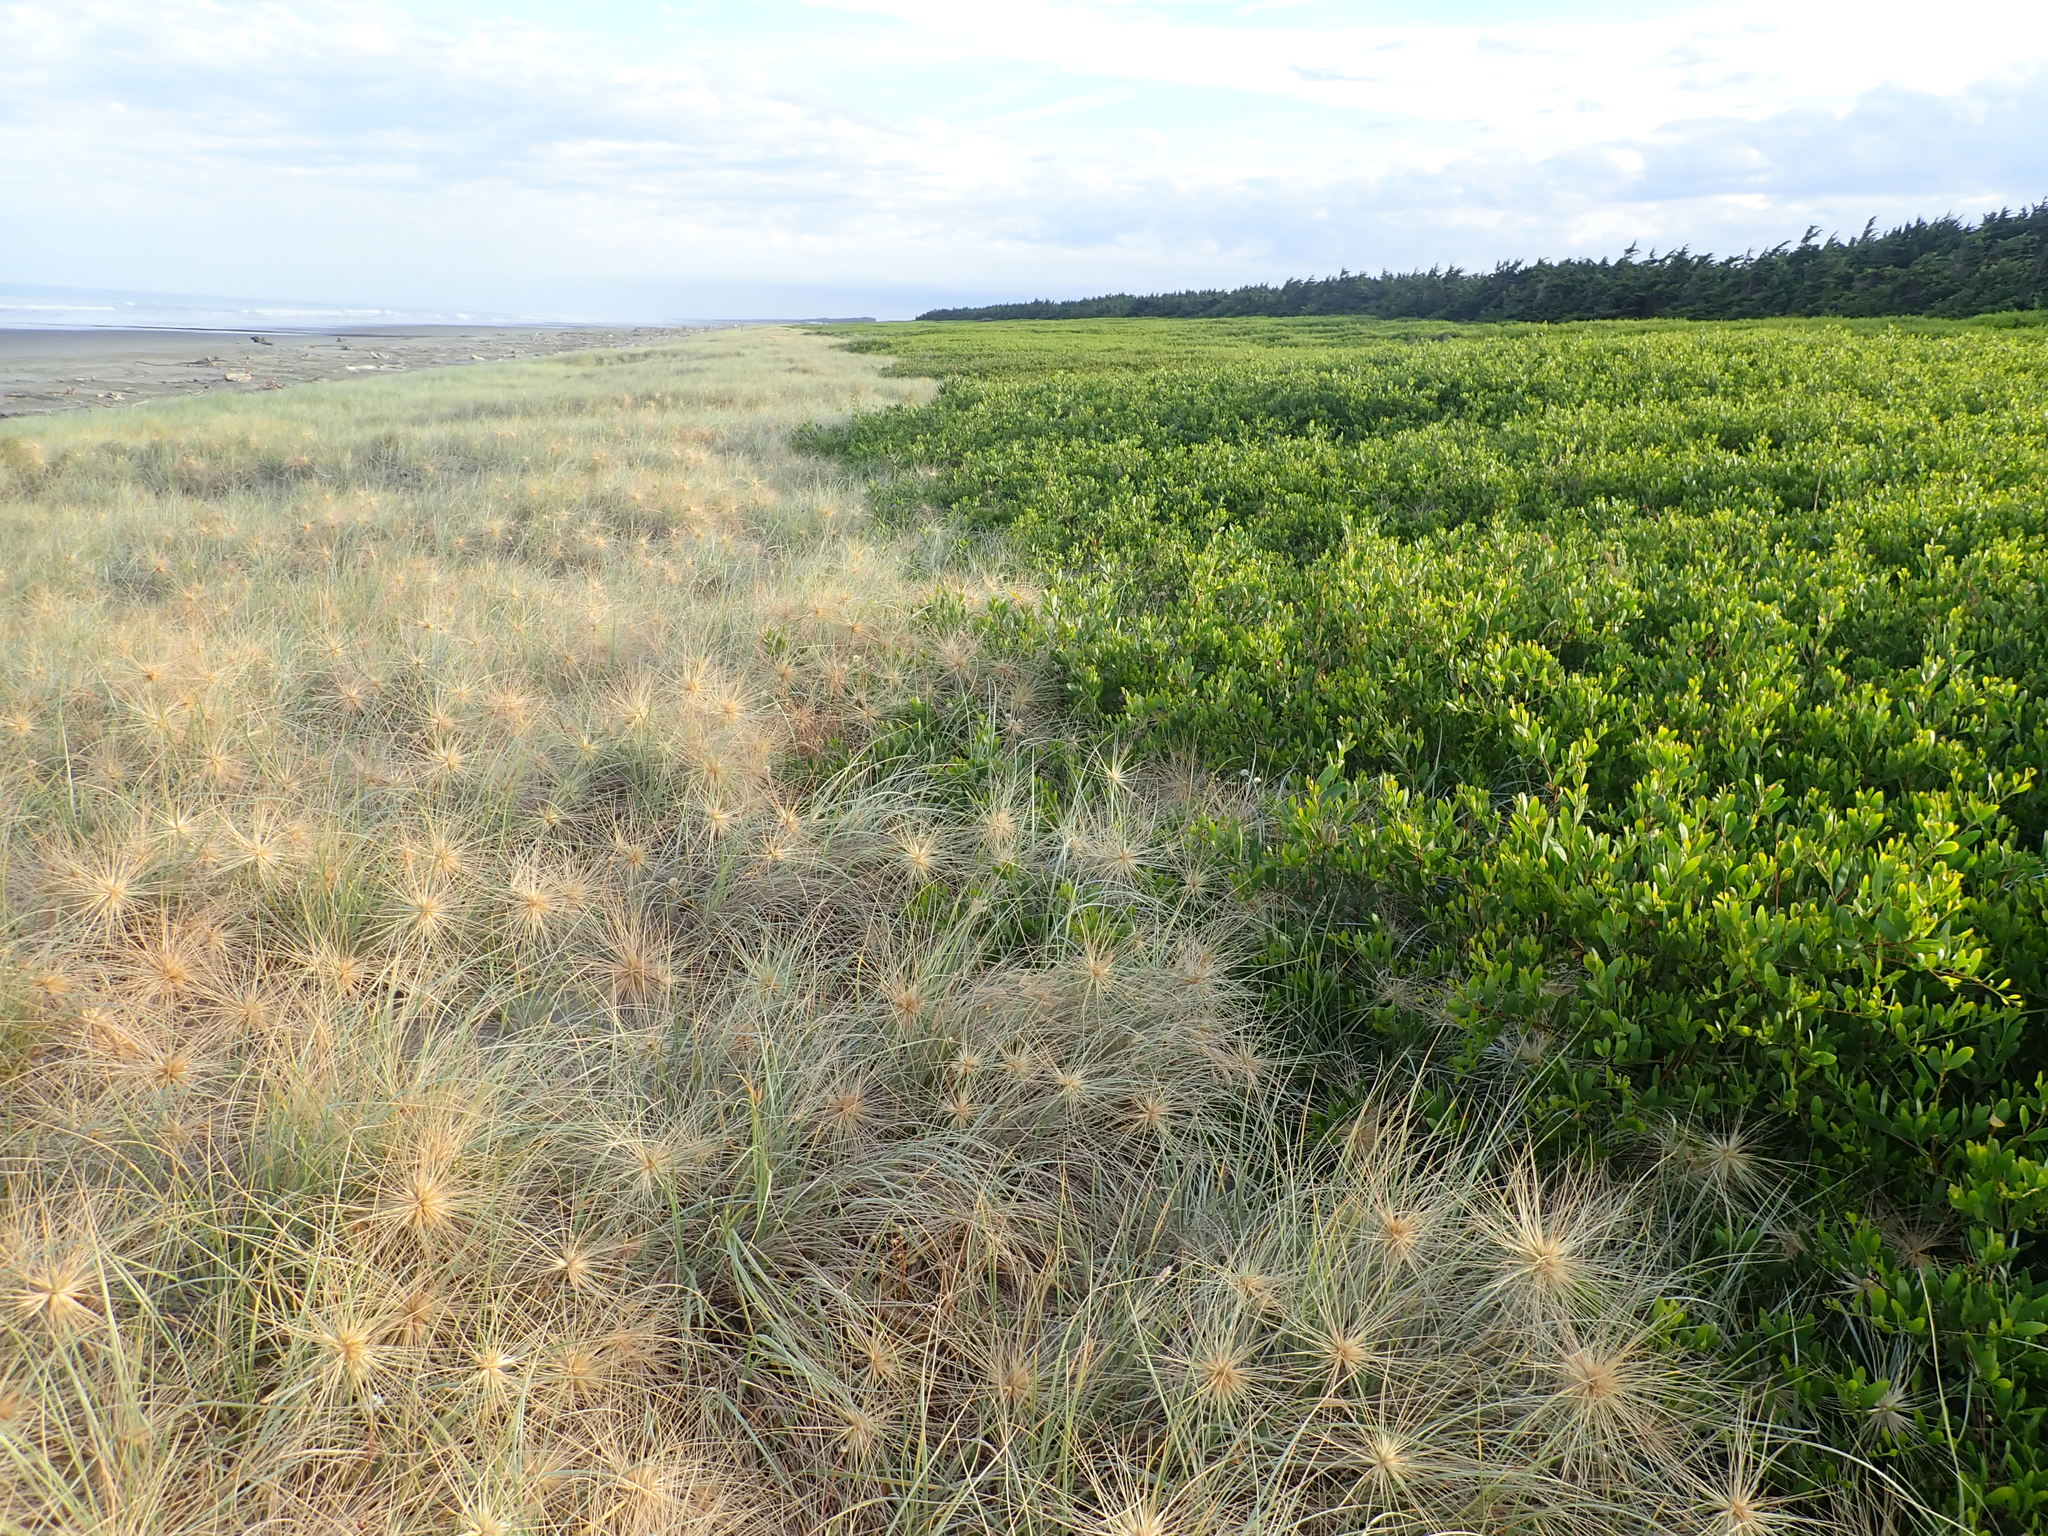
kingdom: Plantae
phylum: Tracheophyta
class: Magnoliopsida
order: Fabales
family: Fabaceae
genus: Acacia
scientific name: Acacia longifolia
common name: Sydney golden wattle
